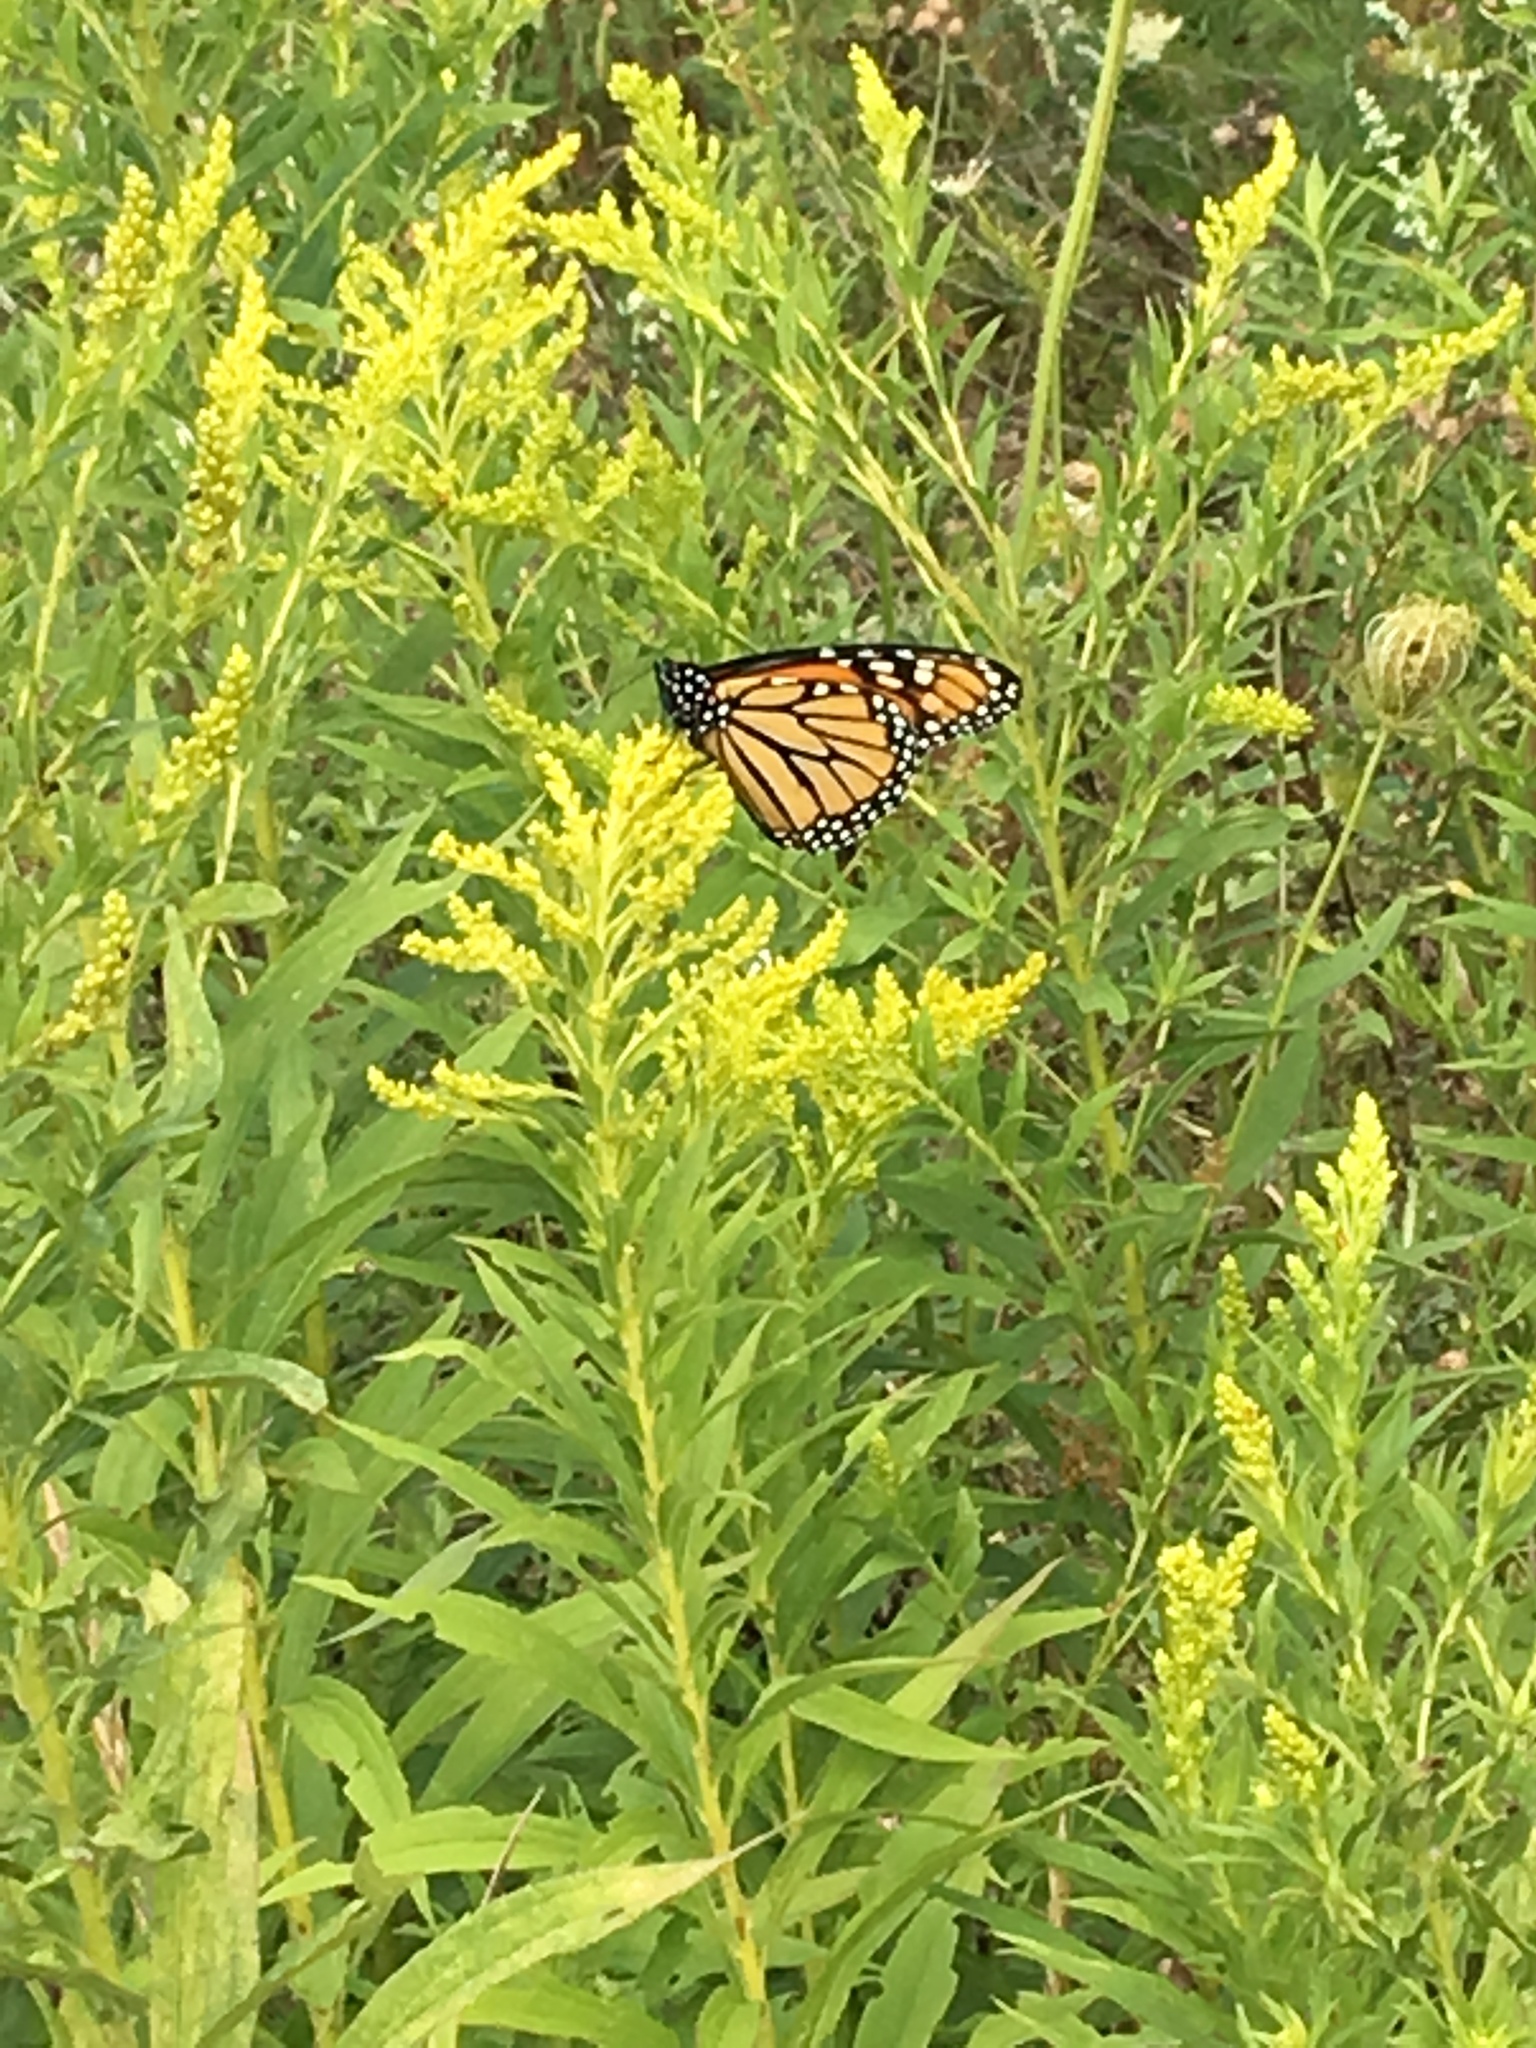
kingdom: Animalia
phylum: Arthropoda
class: Insecta
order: Lepidoptera
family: Nymphalidae
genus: Danaus
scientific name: Danaus plexippus
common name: Monarch
